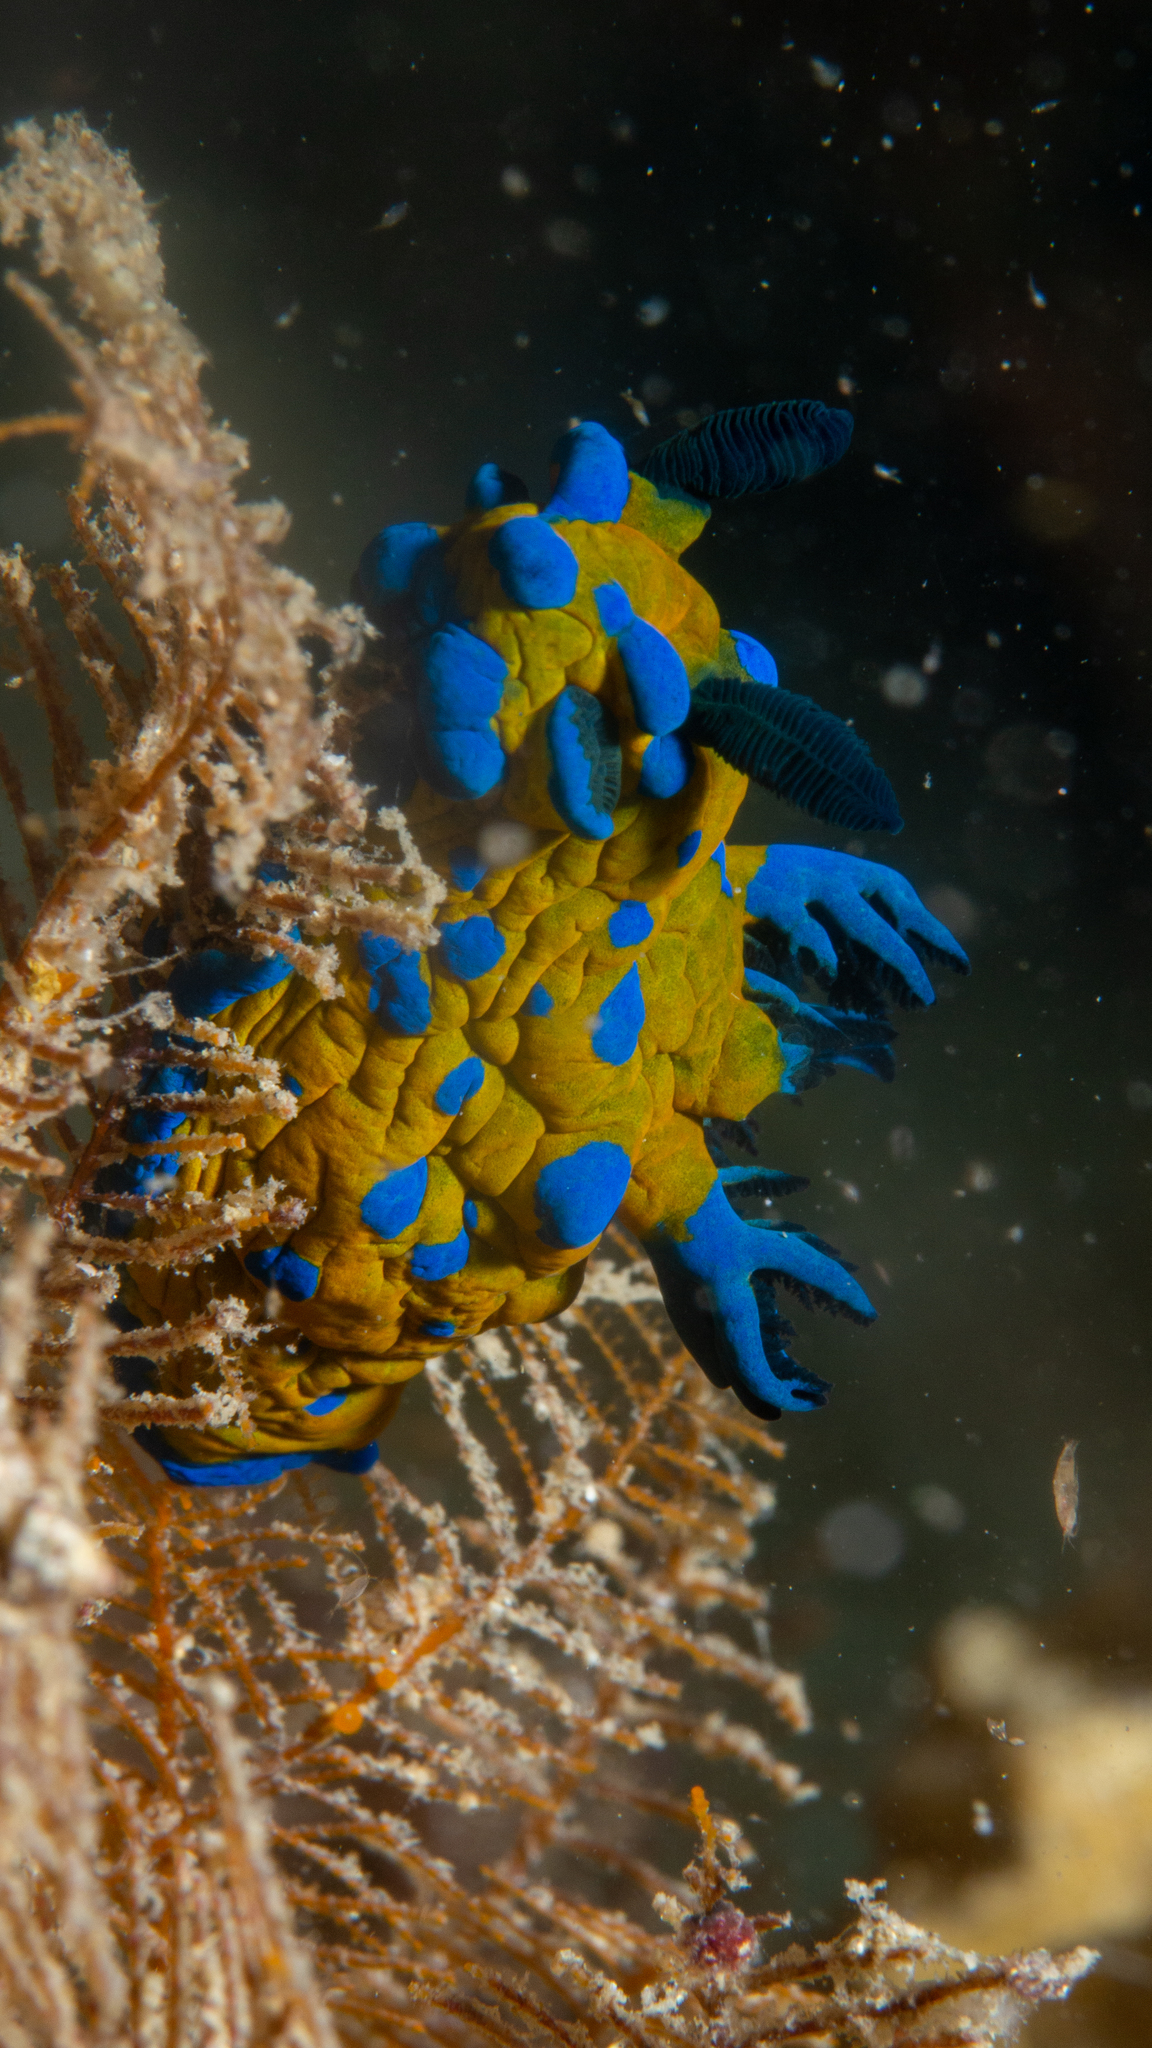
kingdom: Animalia
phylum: Mollusca
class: Gastropoda
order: Nudibranchia
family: Polyceridae
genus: Tambja
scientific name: Tambja verconis
